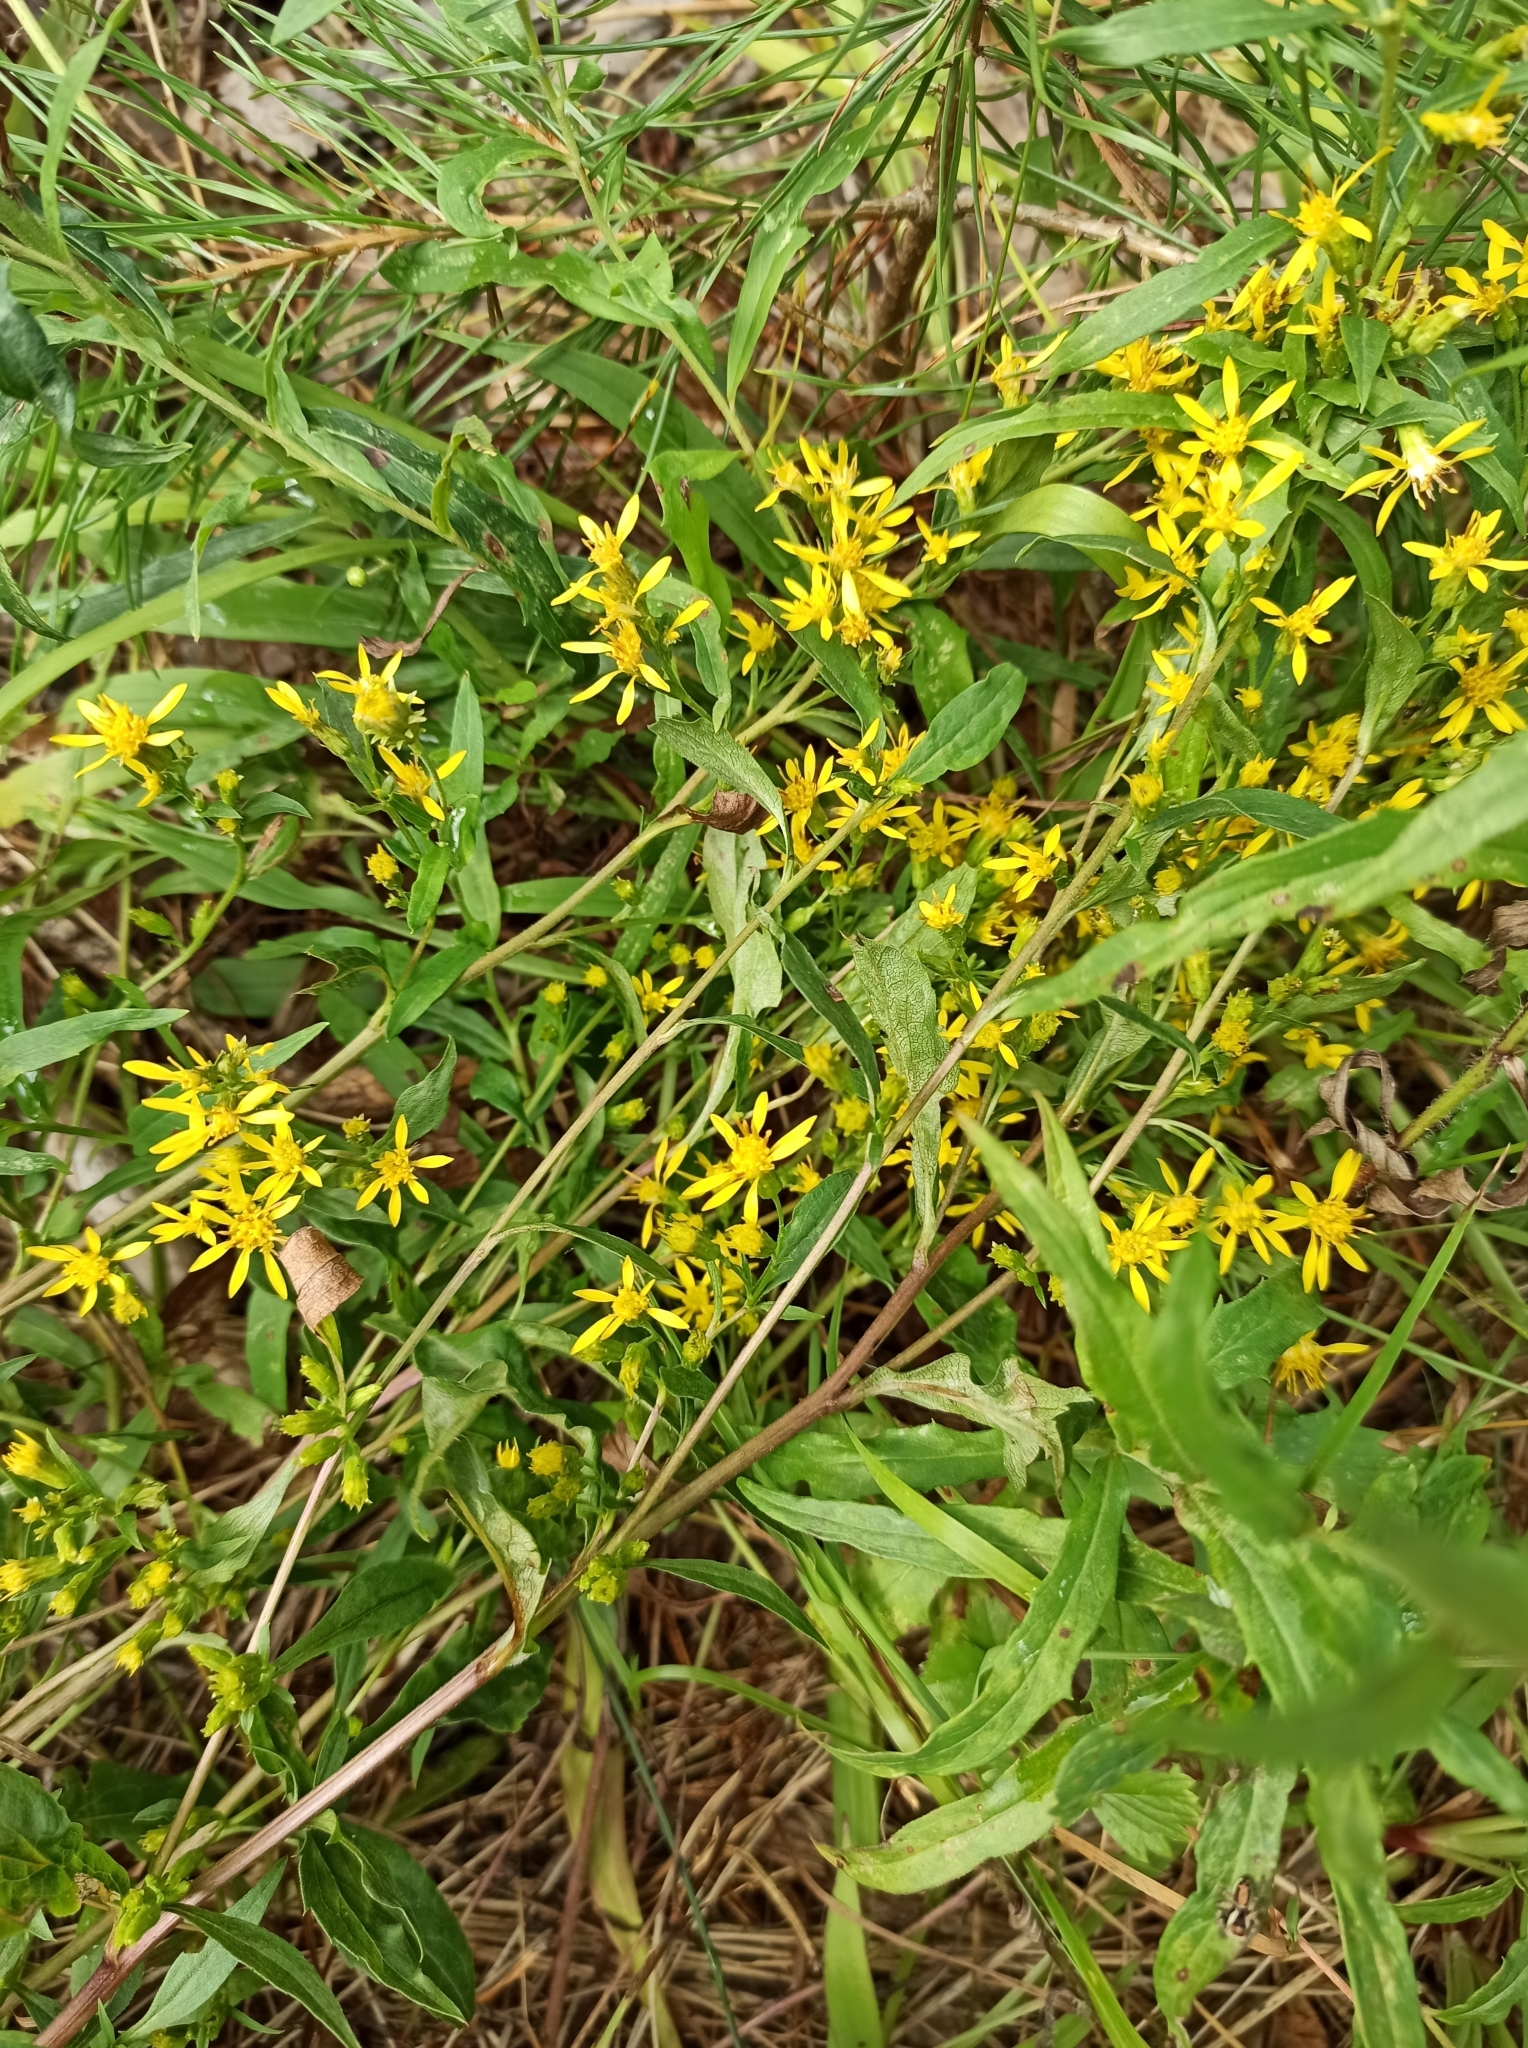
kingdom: Plantae
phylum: Tracheophyta
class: Magnoliopsida
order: Asterales
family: Asteraceae
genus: Solidago
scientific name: Solidago virgaurea
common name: Goldenrod
